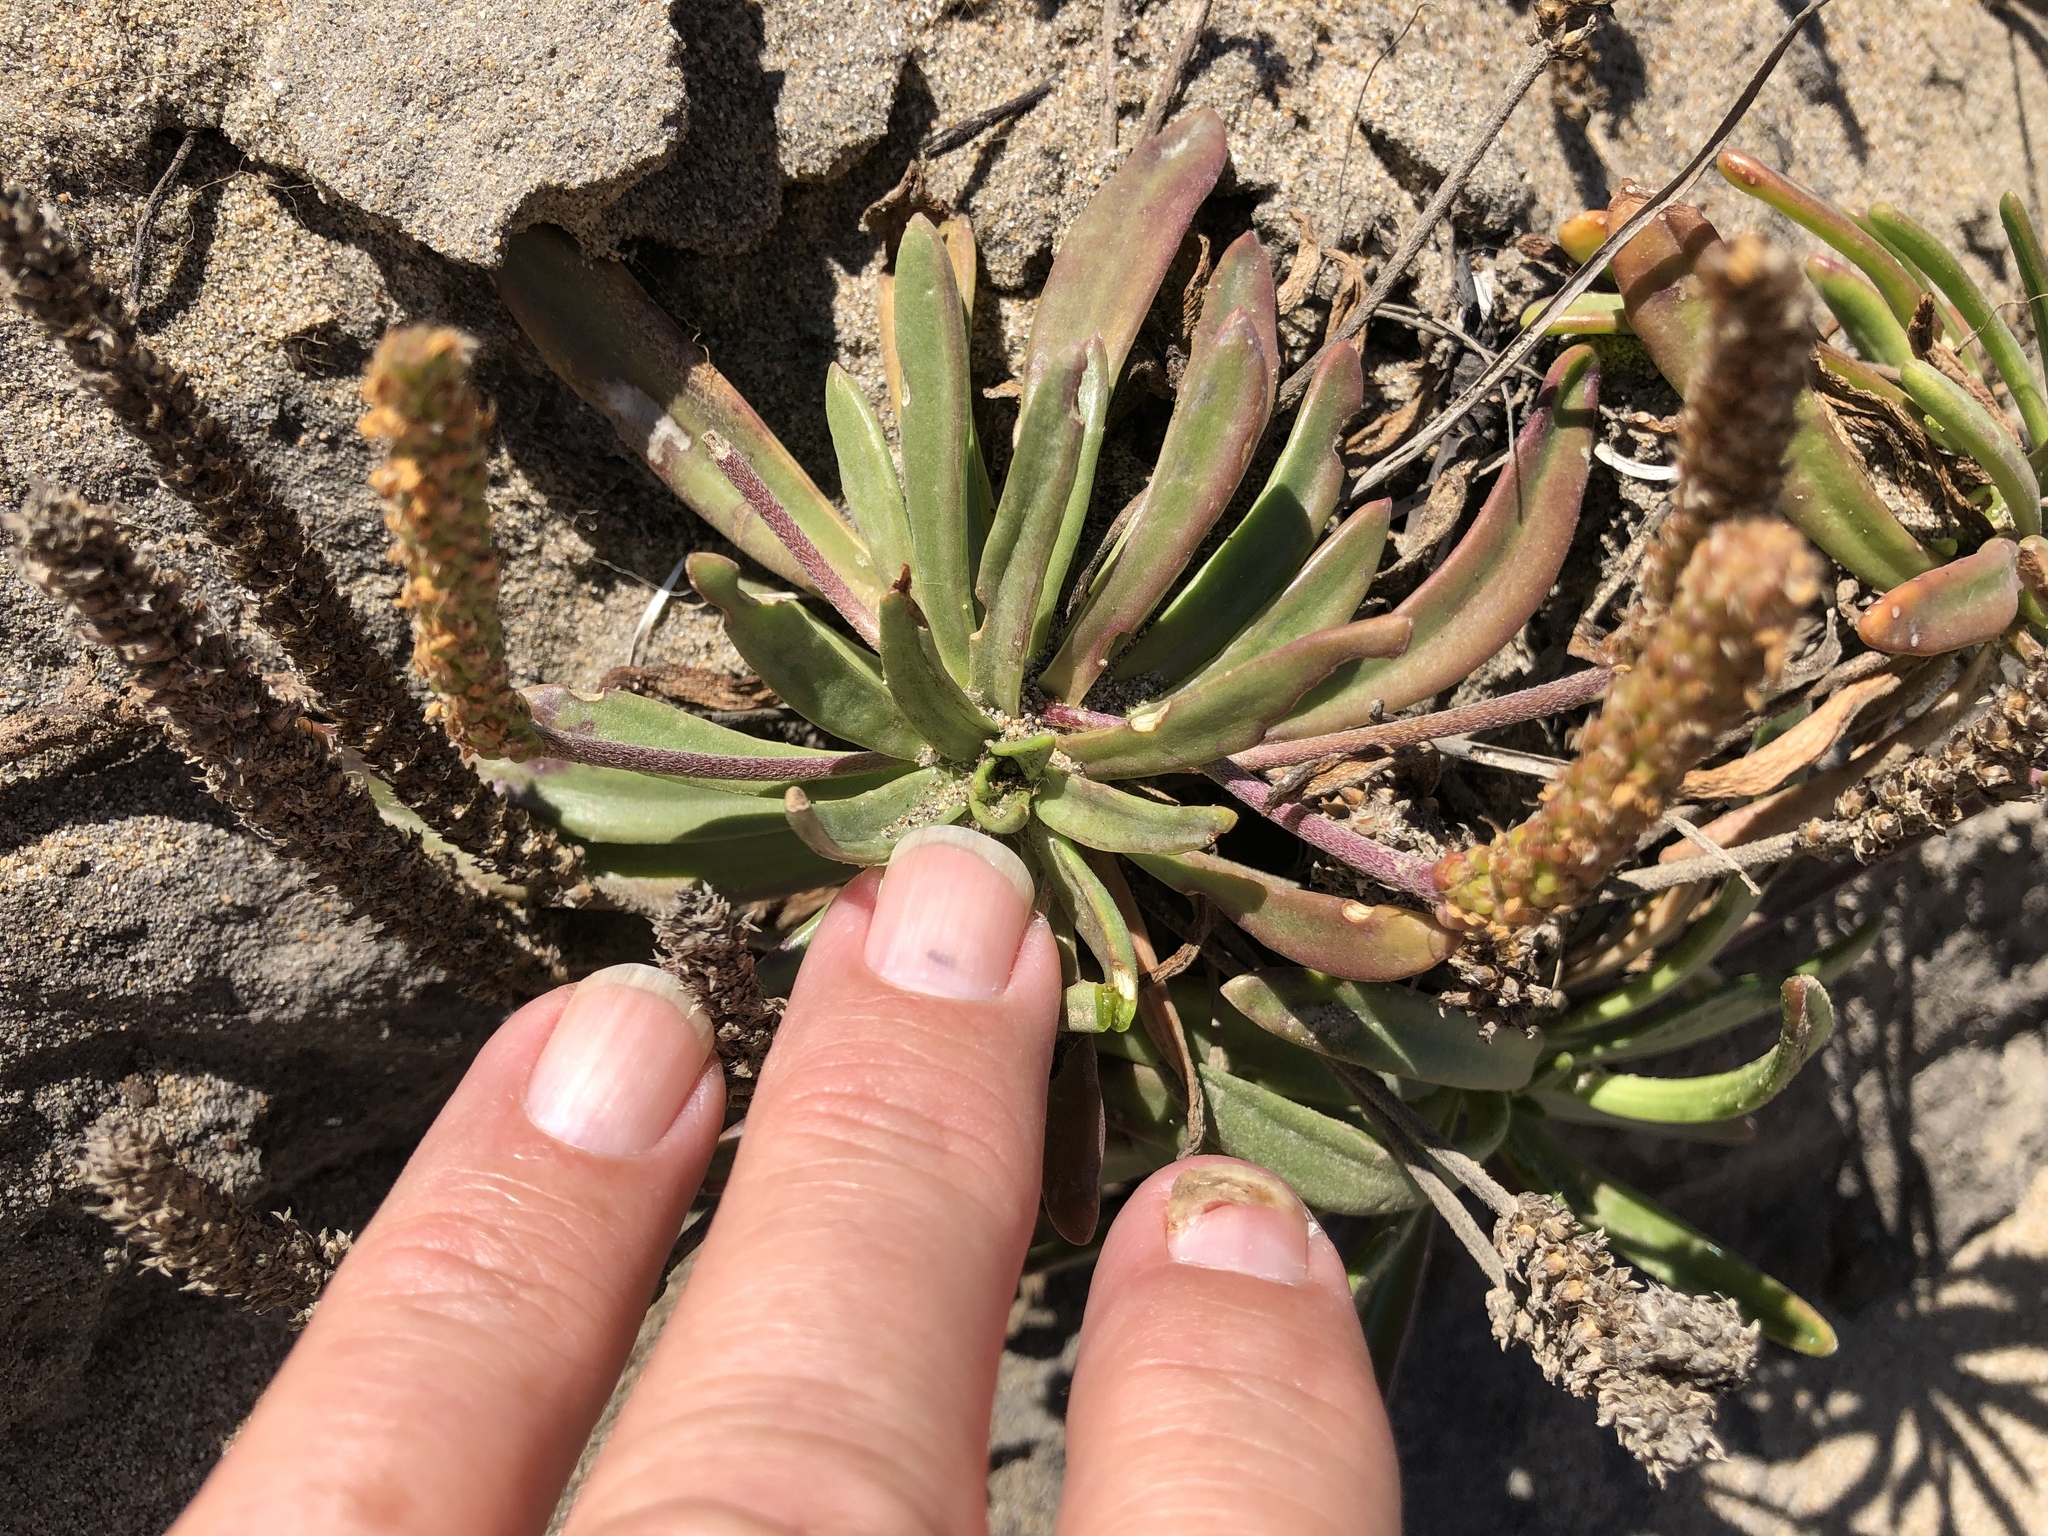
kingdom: Plantae
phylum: Tracheophyta
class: Magnoliopsida
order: Lamiales
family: Plantaginaceae
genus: Plantago
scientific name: Plantago maritima
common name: Sea plantain
